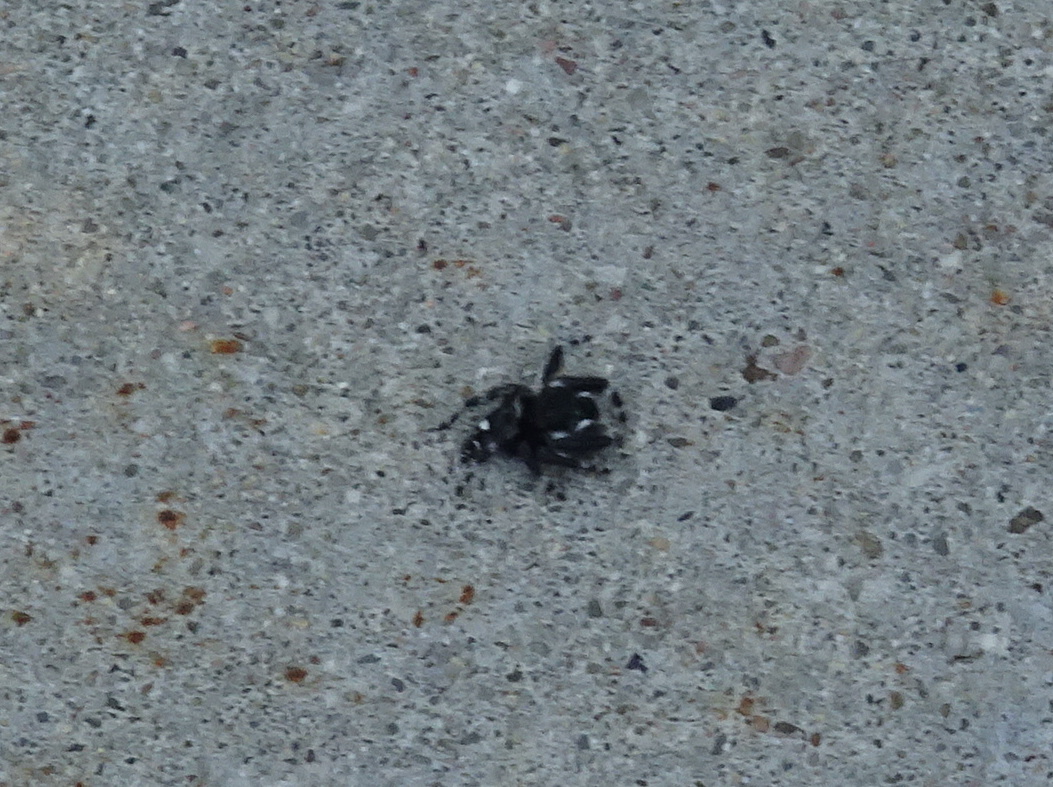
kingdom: Animalia
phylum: Arthropoda
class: Arachnida
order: Araneae
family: Salticidae
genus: Phidippus
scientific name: Phidippus audax
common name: Bold jumper
